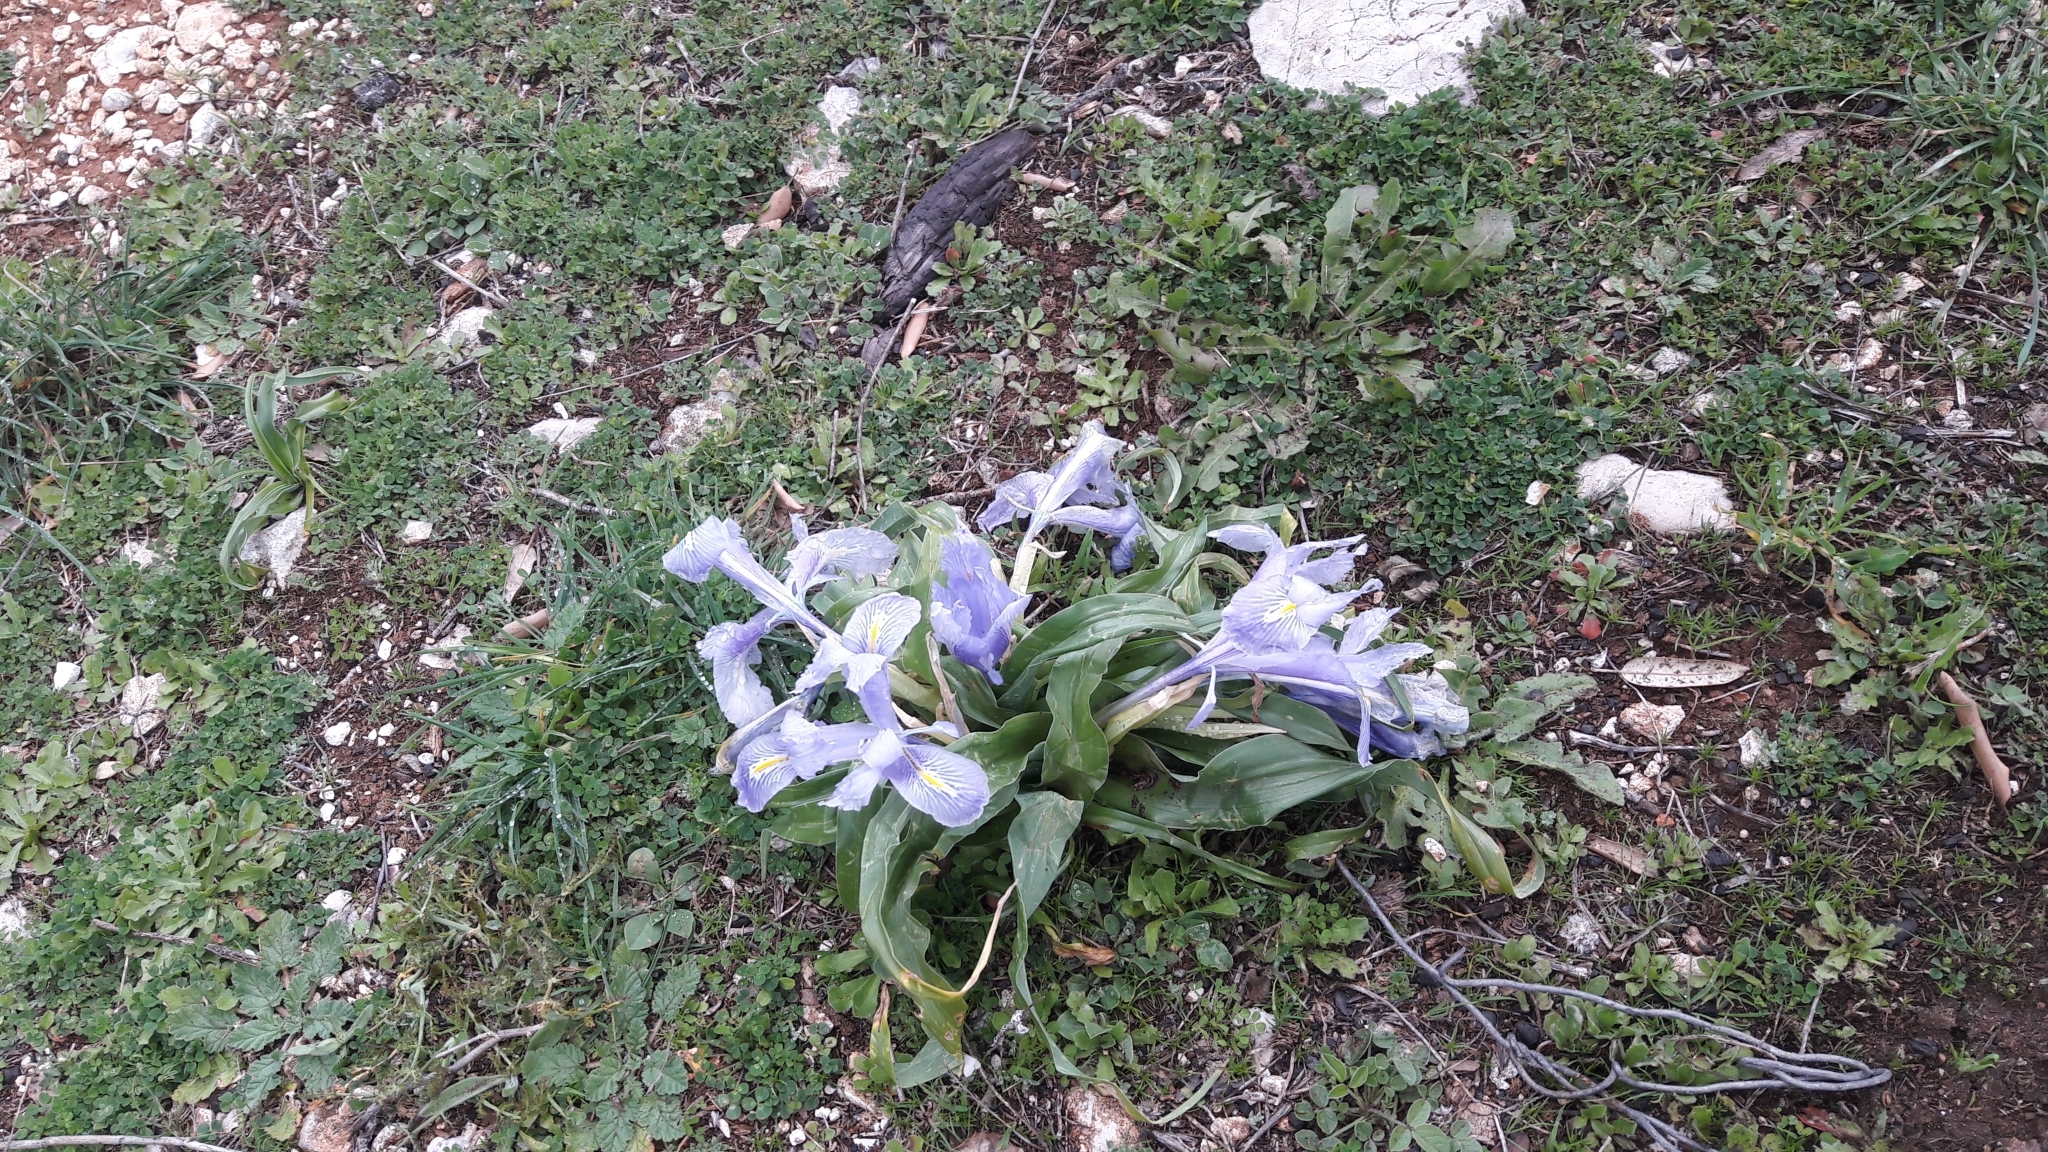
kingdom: Plantae
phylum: Tracheophyta
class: Liliopsida
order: Asparagales
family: Iridaceae
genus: Iris
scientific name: Iris planifolia
